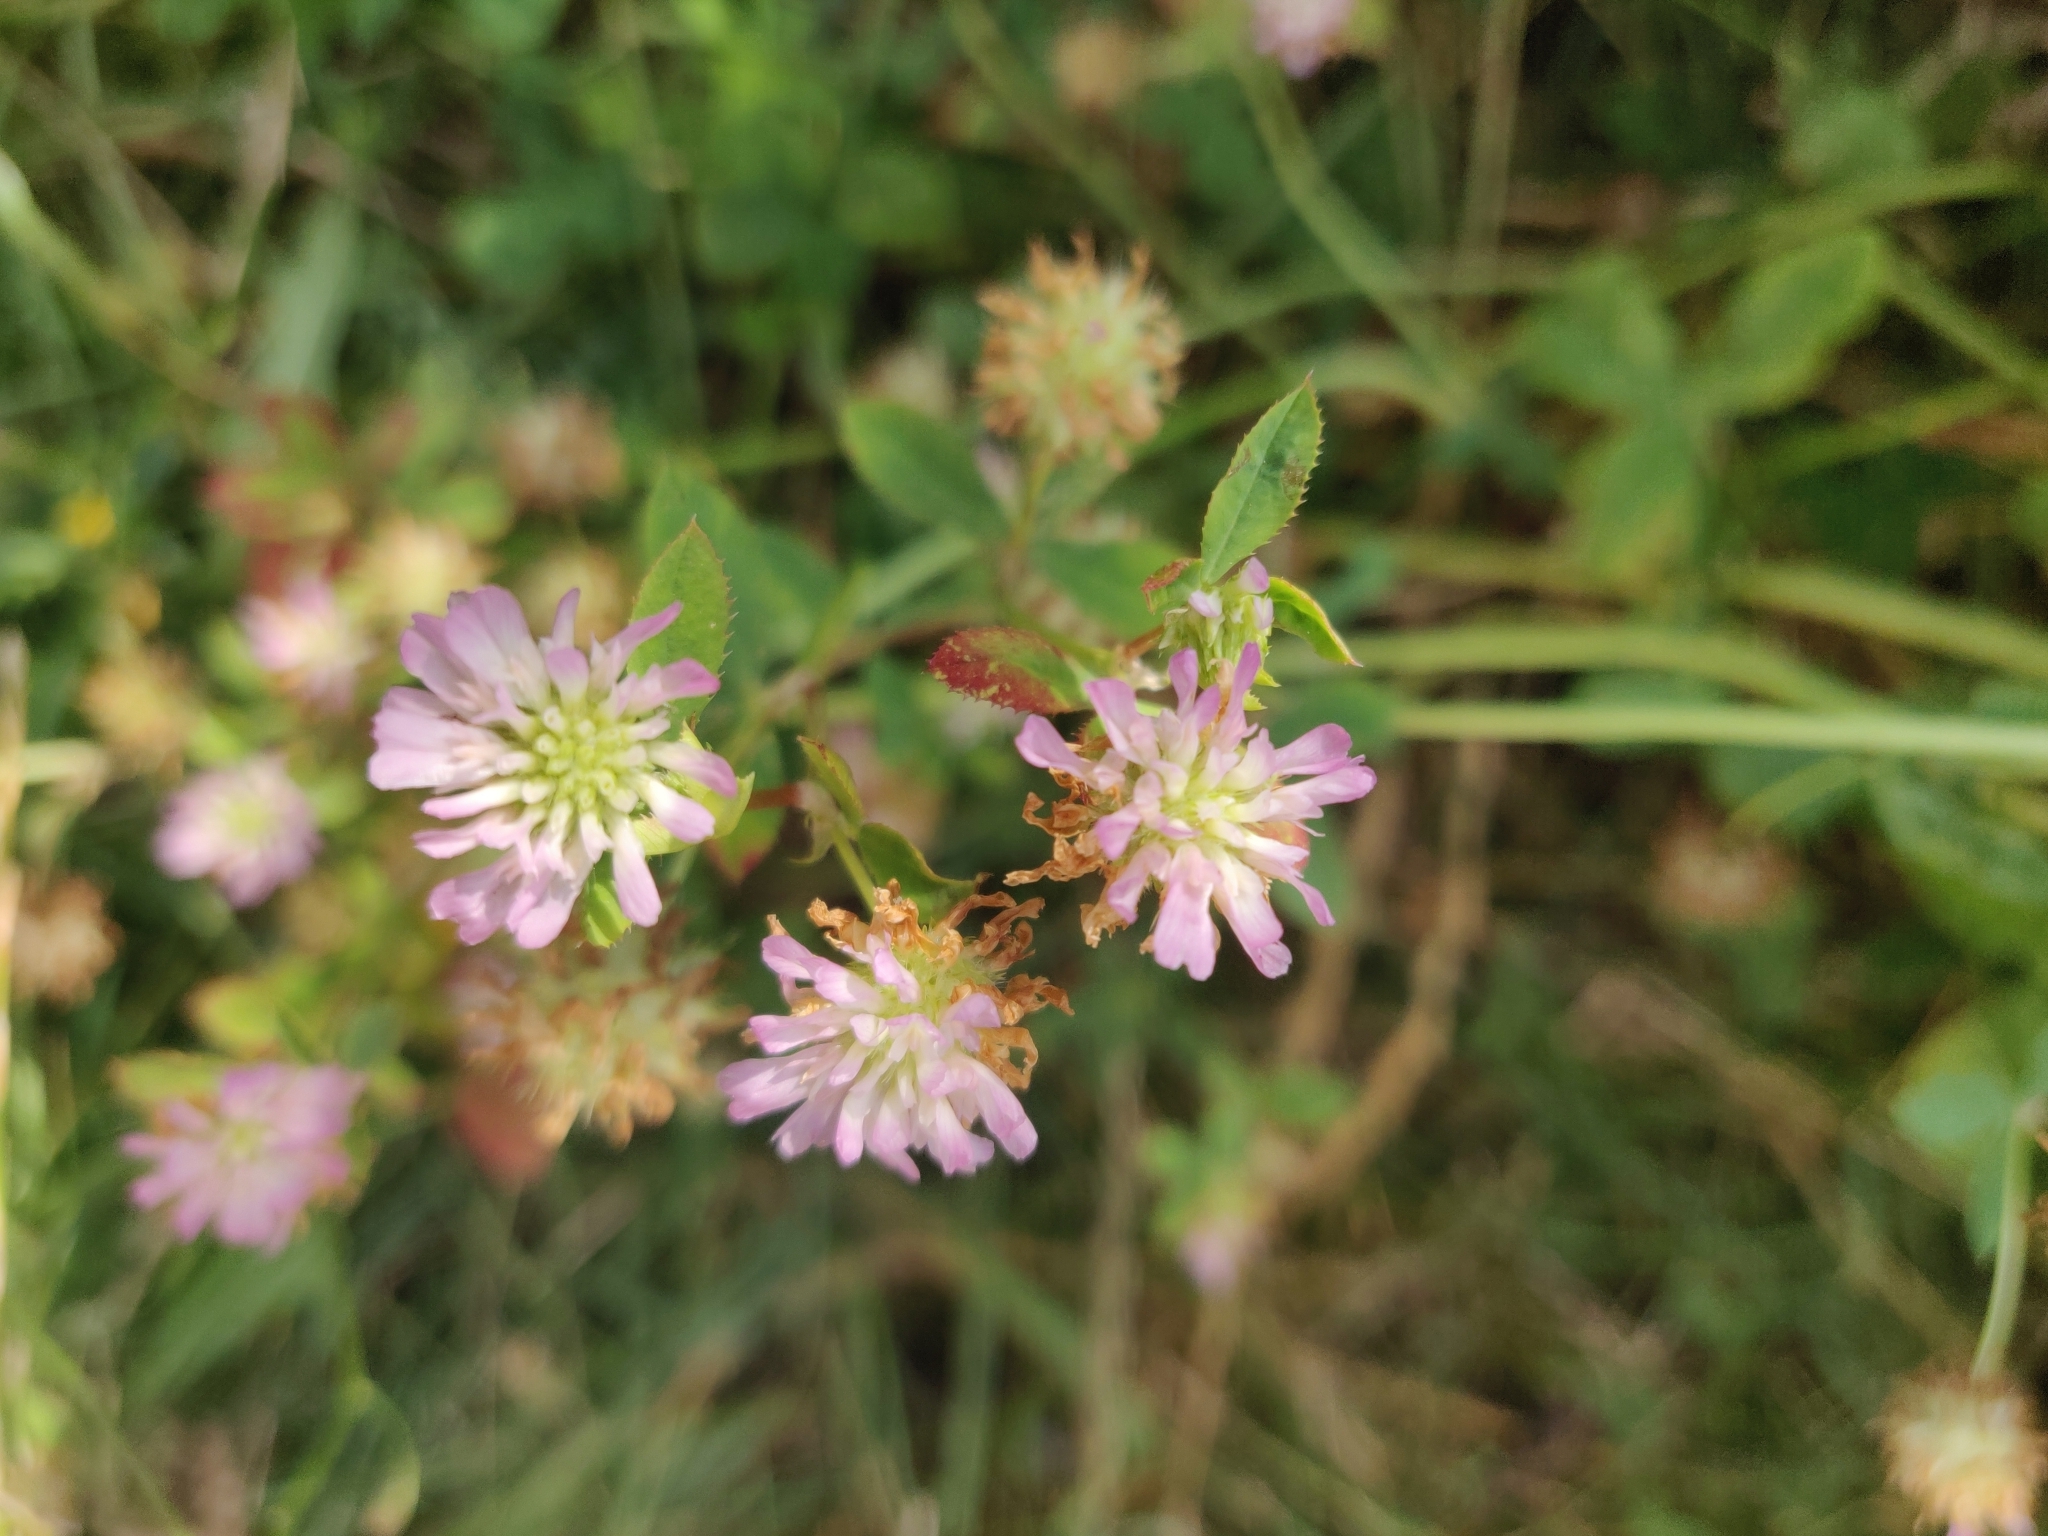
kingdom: Plantae
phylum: Tracheophyta
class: Magnoliopsida
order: Fabales
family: Fabaceae
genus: Trifolium
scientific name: Trifolium resupinatum
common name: Reversed clover
